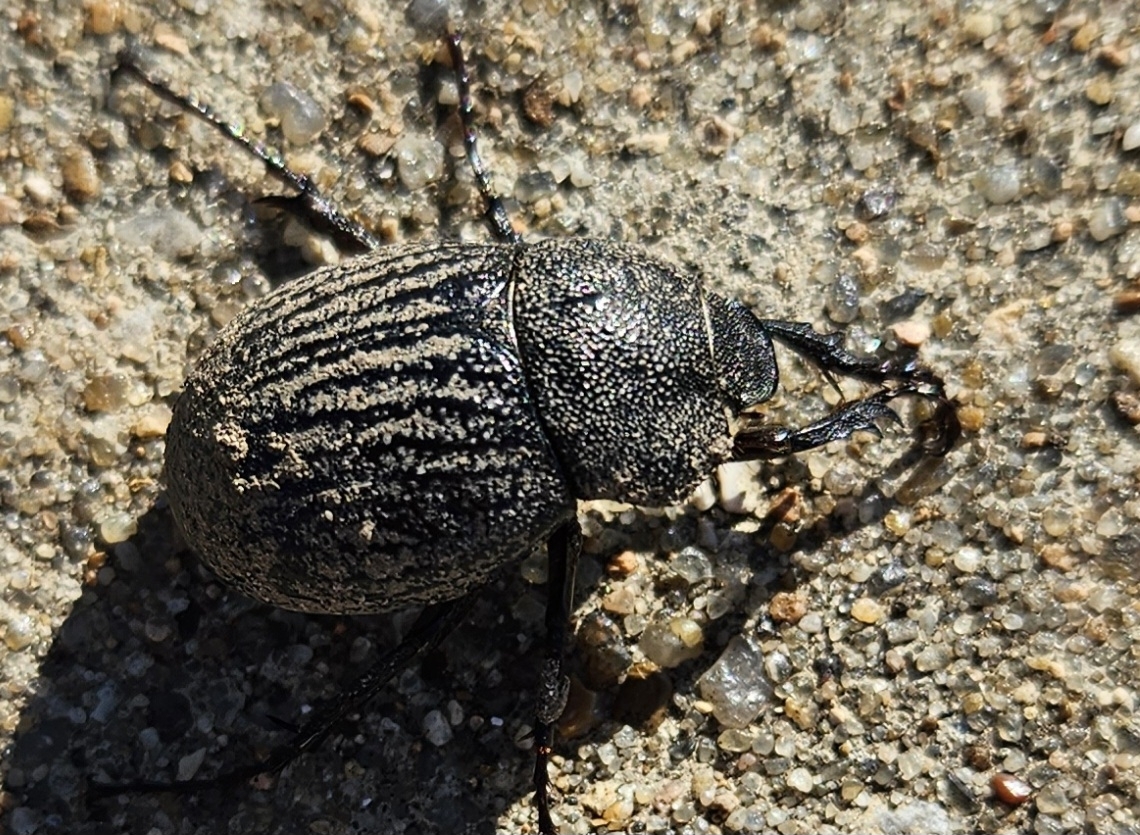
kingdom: Animalia
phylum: Arthropoda
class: Insecta
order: Coleoptera
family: Scarabaeidae
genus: Phyllophaga
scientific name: Phyllophaga cribrosa
